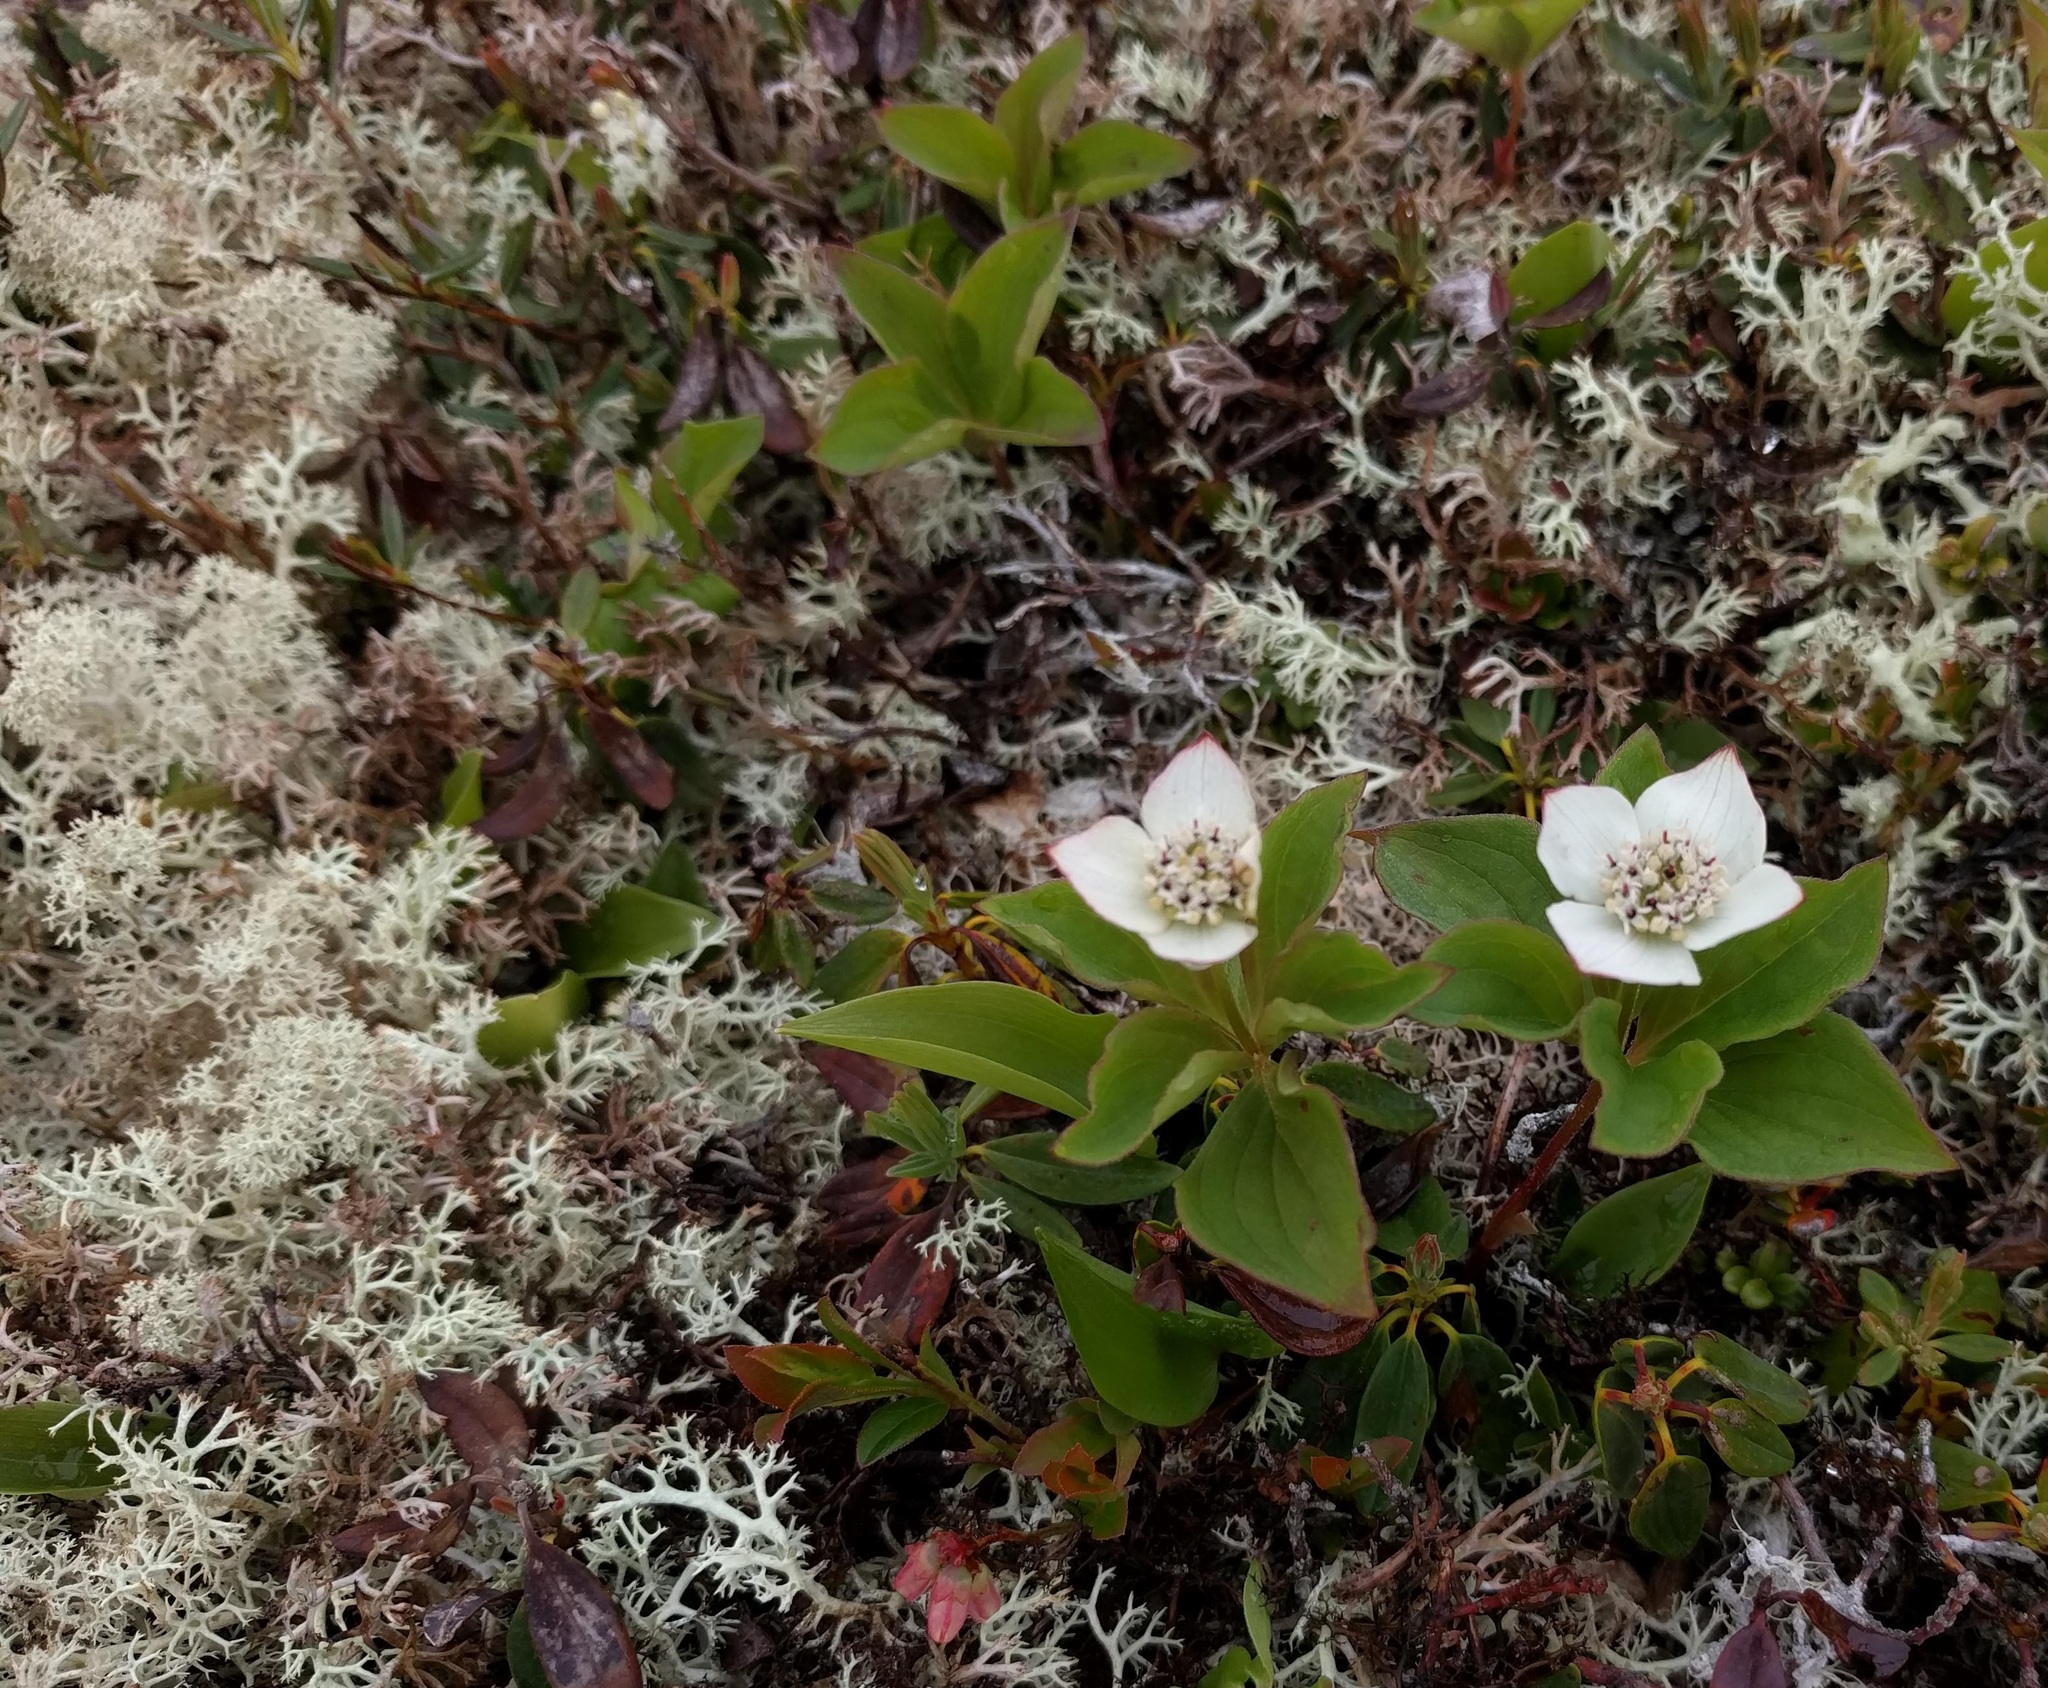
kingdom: Plantae
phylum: Tracheophyta
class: Magnoliopsida
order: Cornales
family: Cornaceae
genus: Cornus
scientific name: Cornus canadensis
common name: Creeping dogwood
